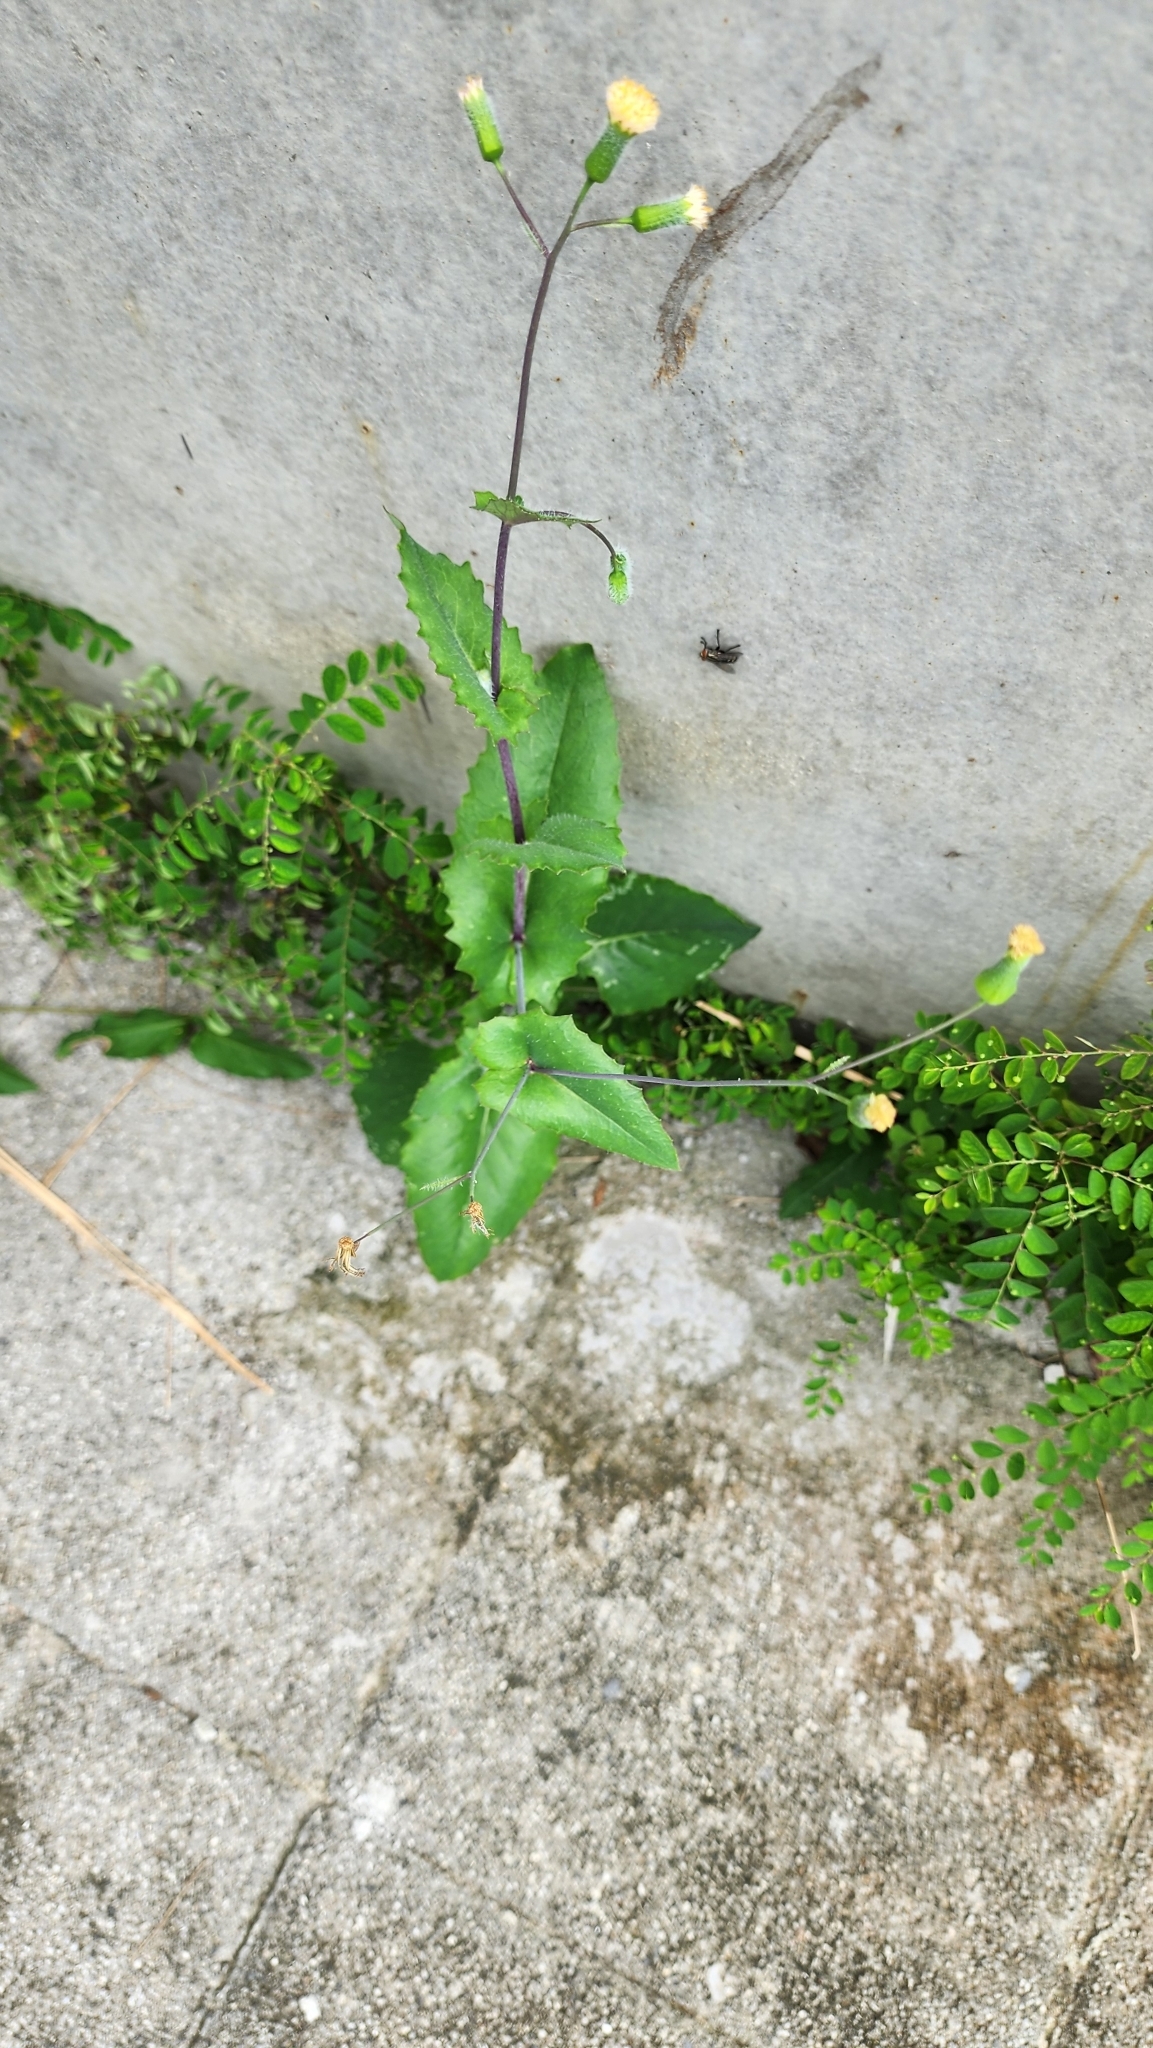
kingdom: Plantae
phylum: Tracheophyta
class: Magnoliopsida
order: Asterales
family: Asteraceae
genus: Emilia
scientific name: Emilia praetermissa
